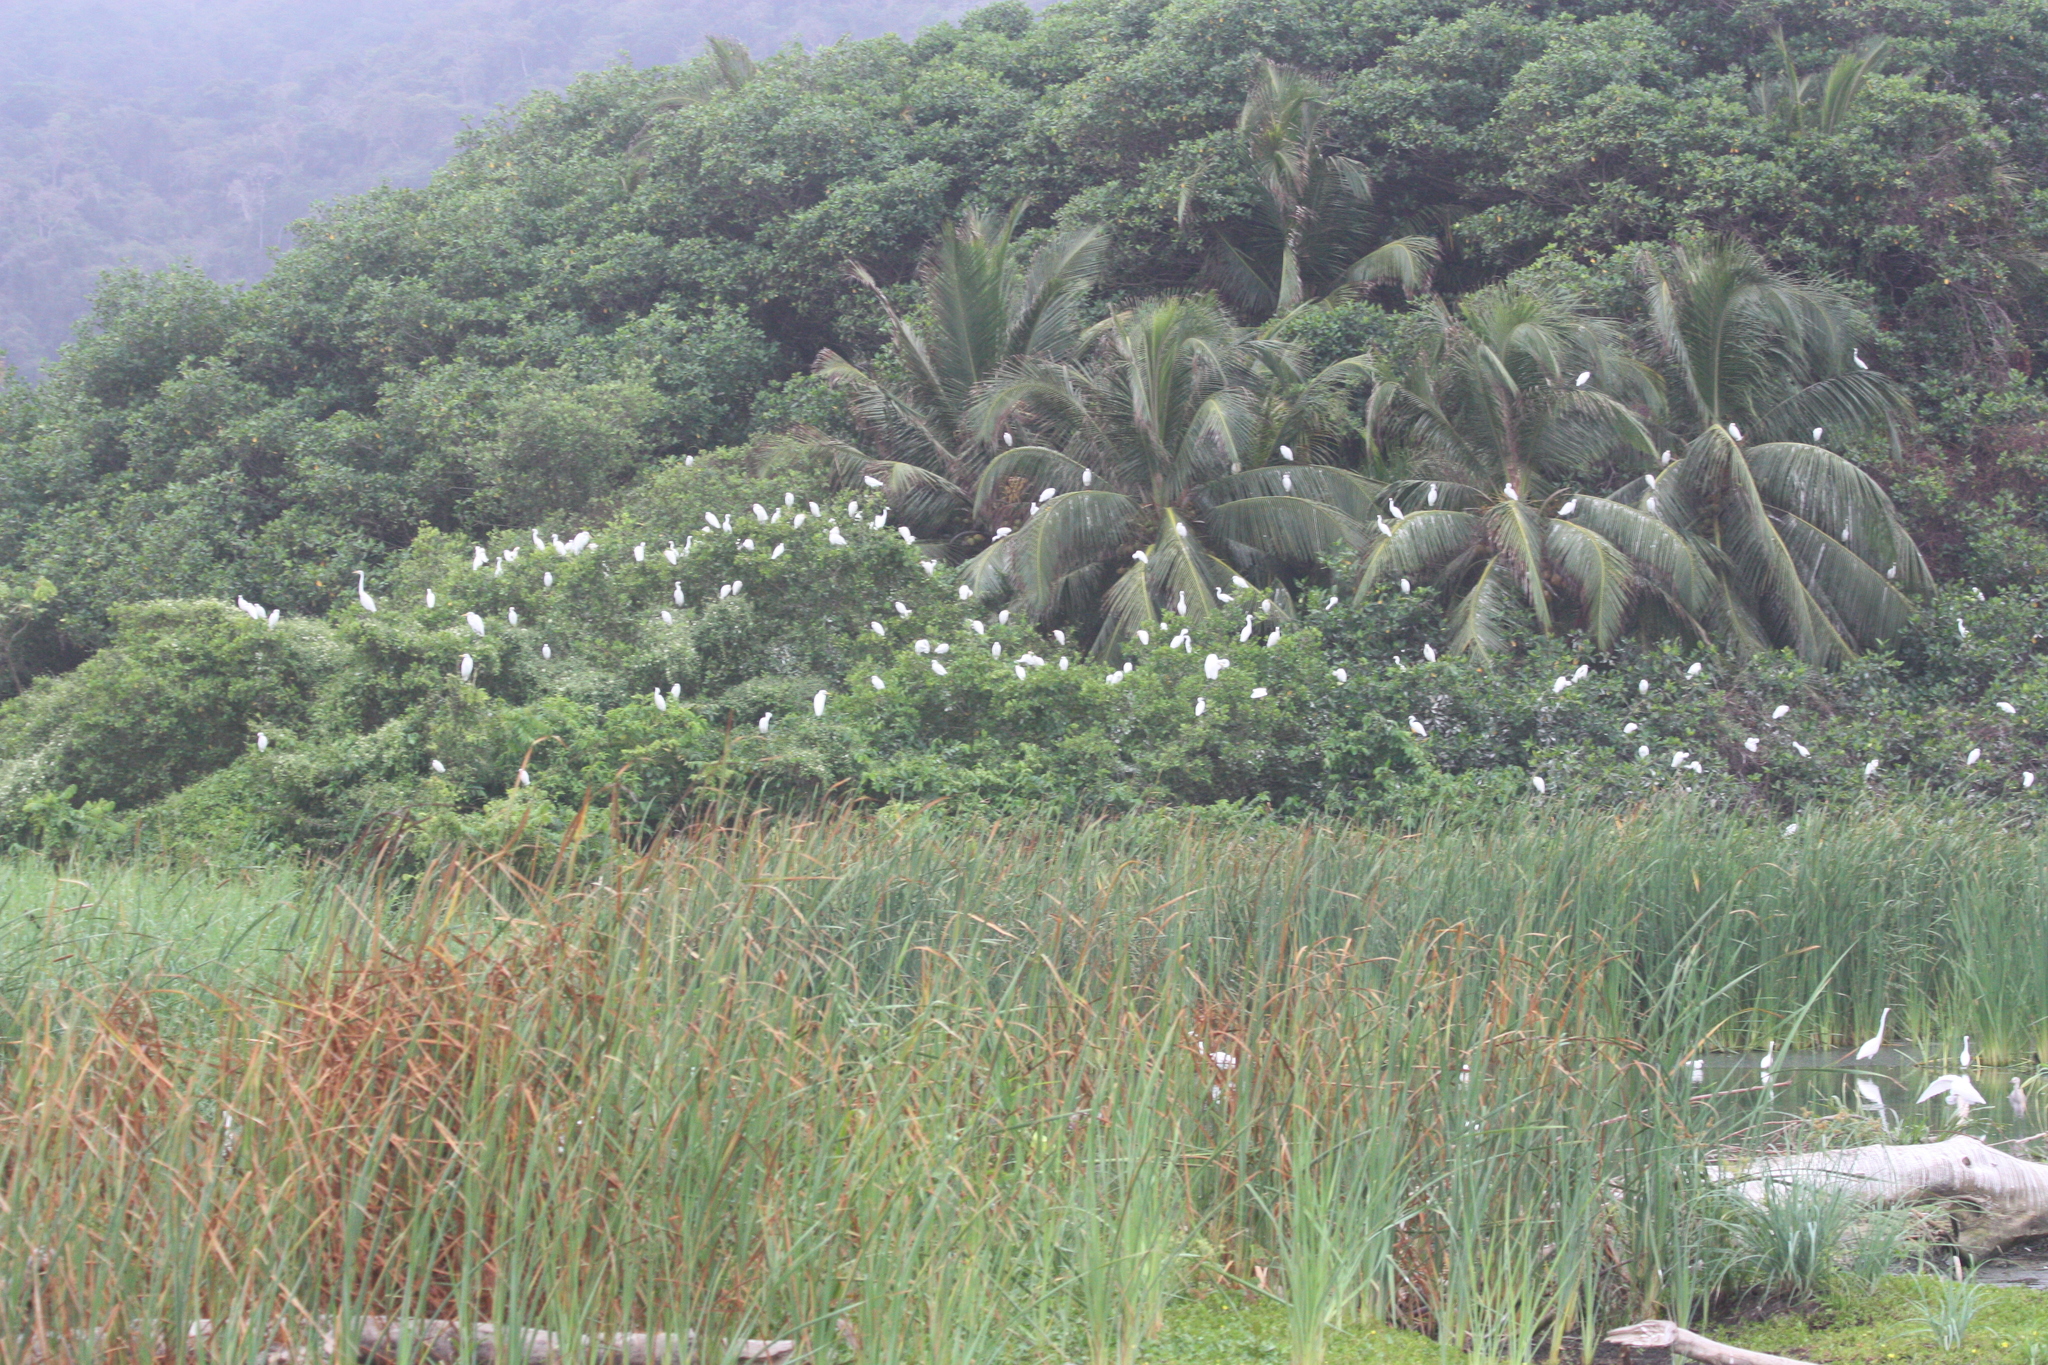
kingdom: Animalia
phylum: Chordata
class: Aves
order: Pelecaniformes
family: Ardeidae
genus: Egretta
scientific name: Egretta thula
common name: Snowy egret
